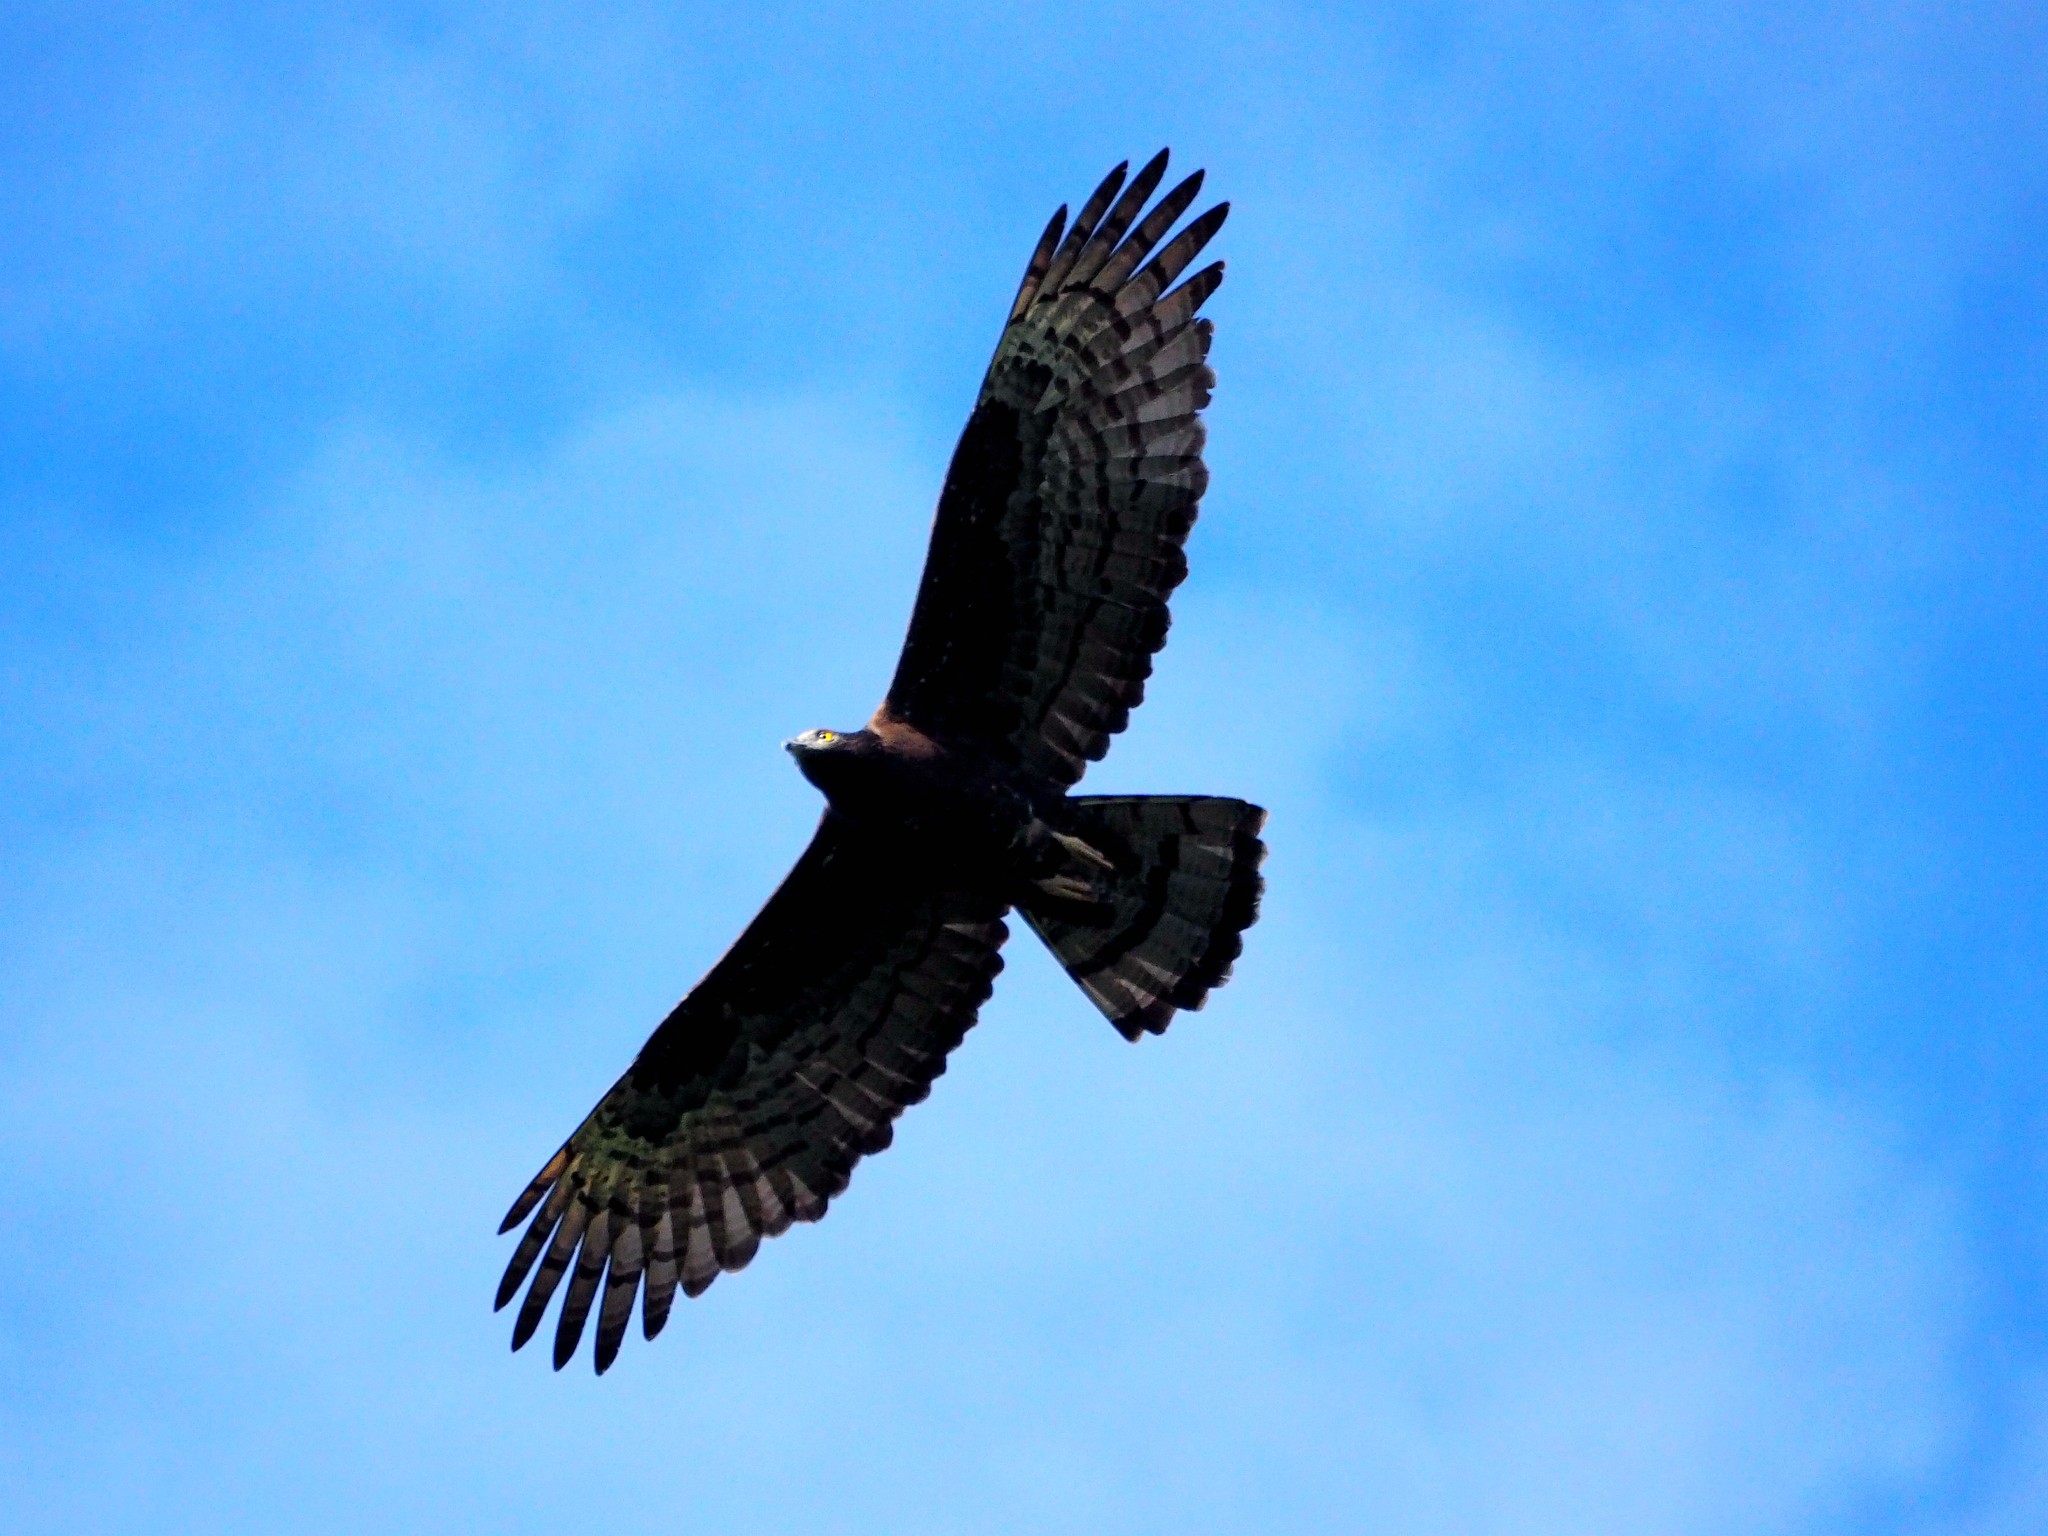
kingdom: Animalia
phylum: Chordata
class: Aves
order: Accipitriformes
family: Accipitridae
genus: Spilornis
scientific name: Spilornis cheela
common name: Crested serpent eagle
